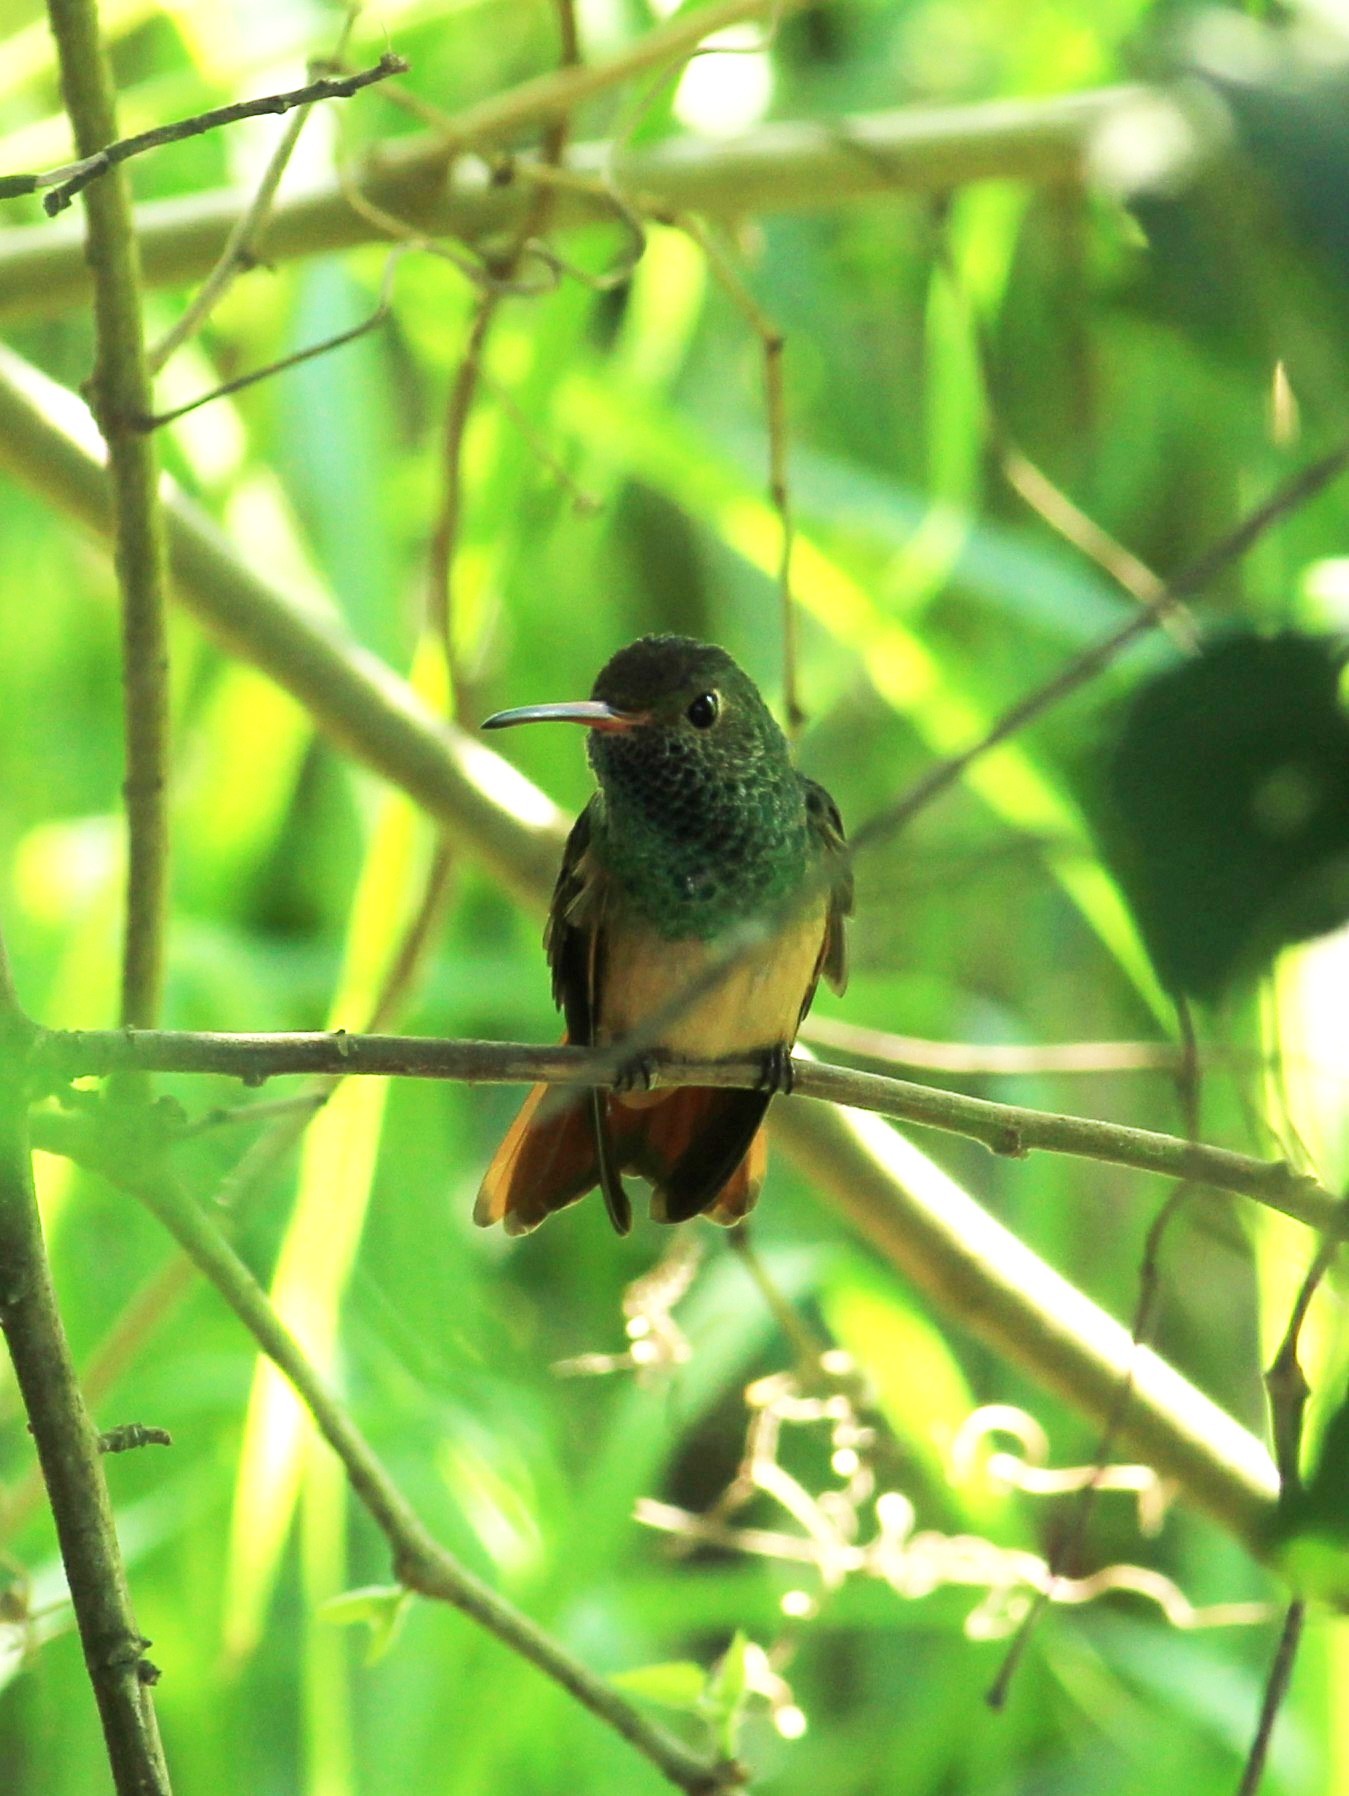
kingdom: Animalia
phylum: Chordata
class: Aves
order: Apodiformes
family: Trochilidae
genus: Amazilia
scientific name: Amazilia yucatanensis
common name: Buff-bellied hummingbird
